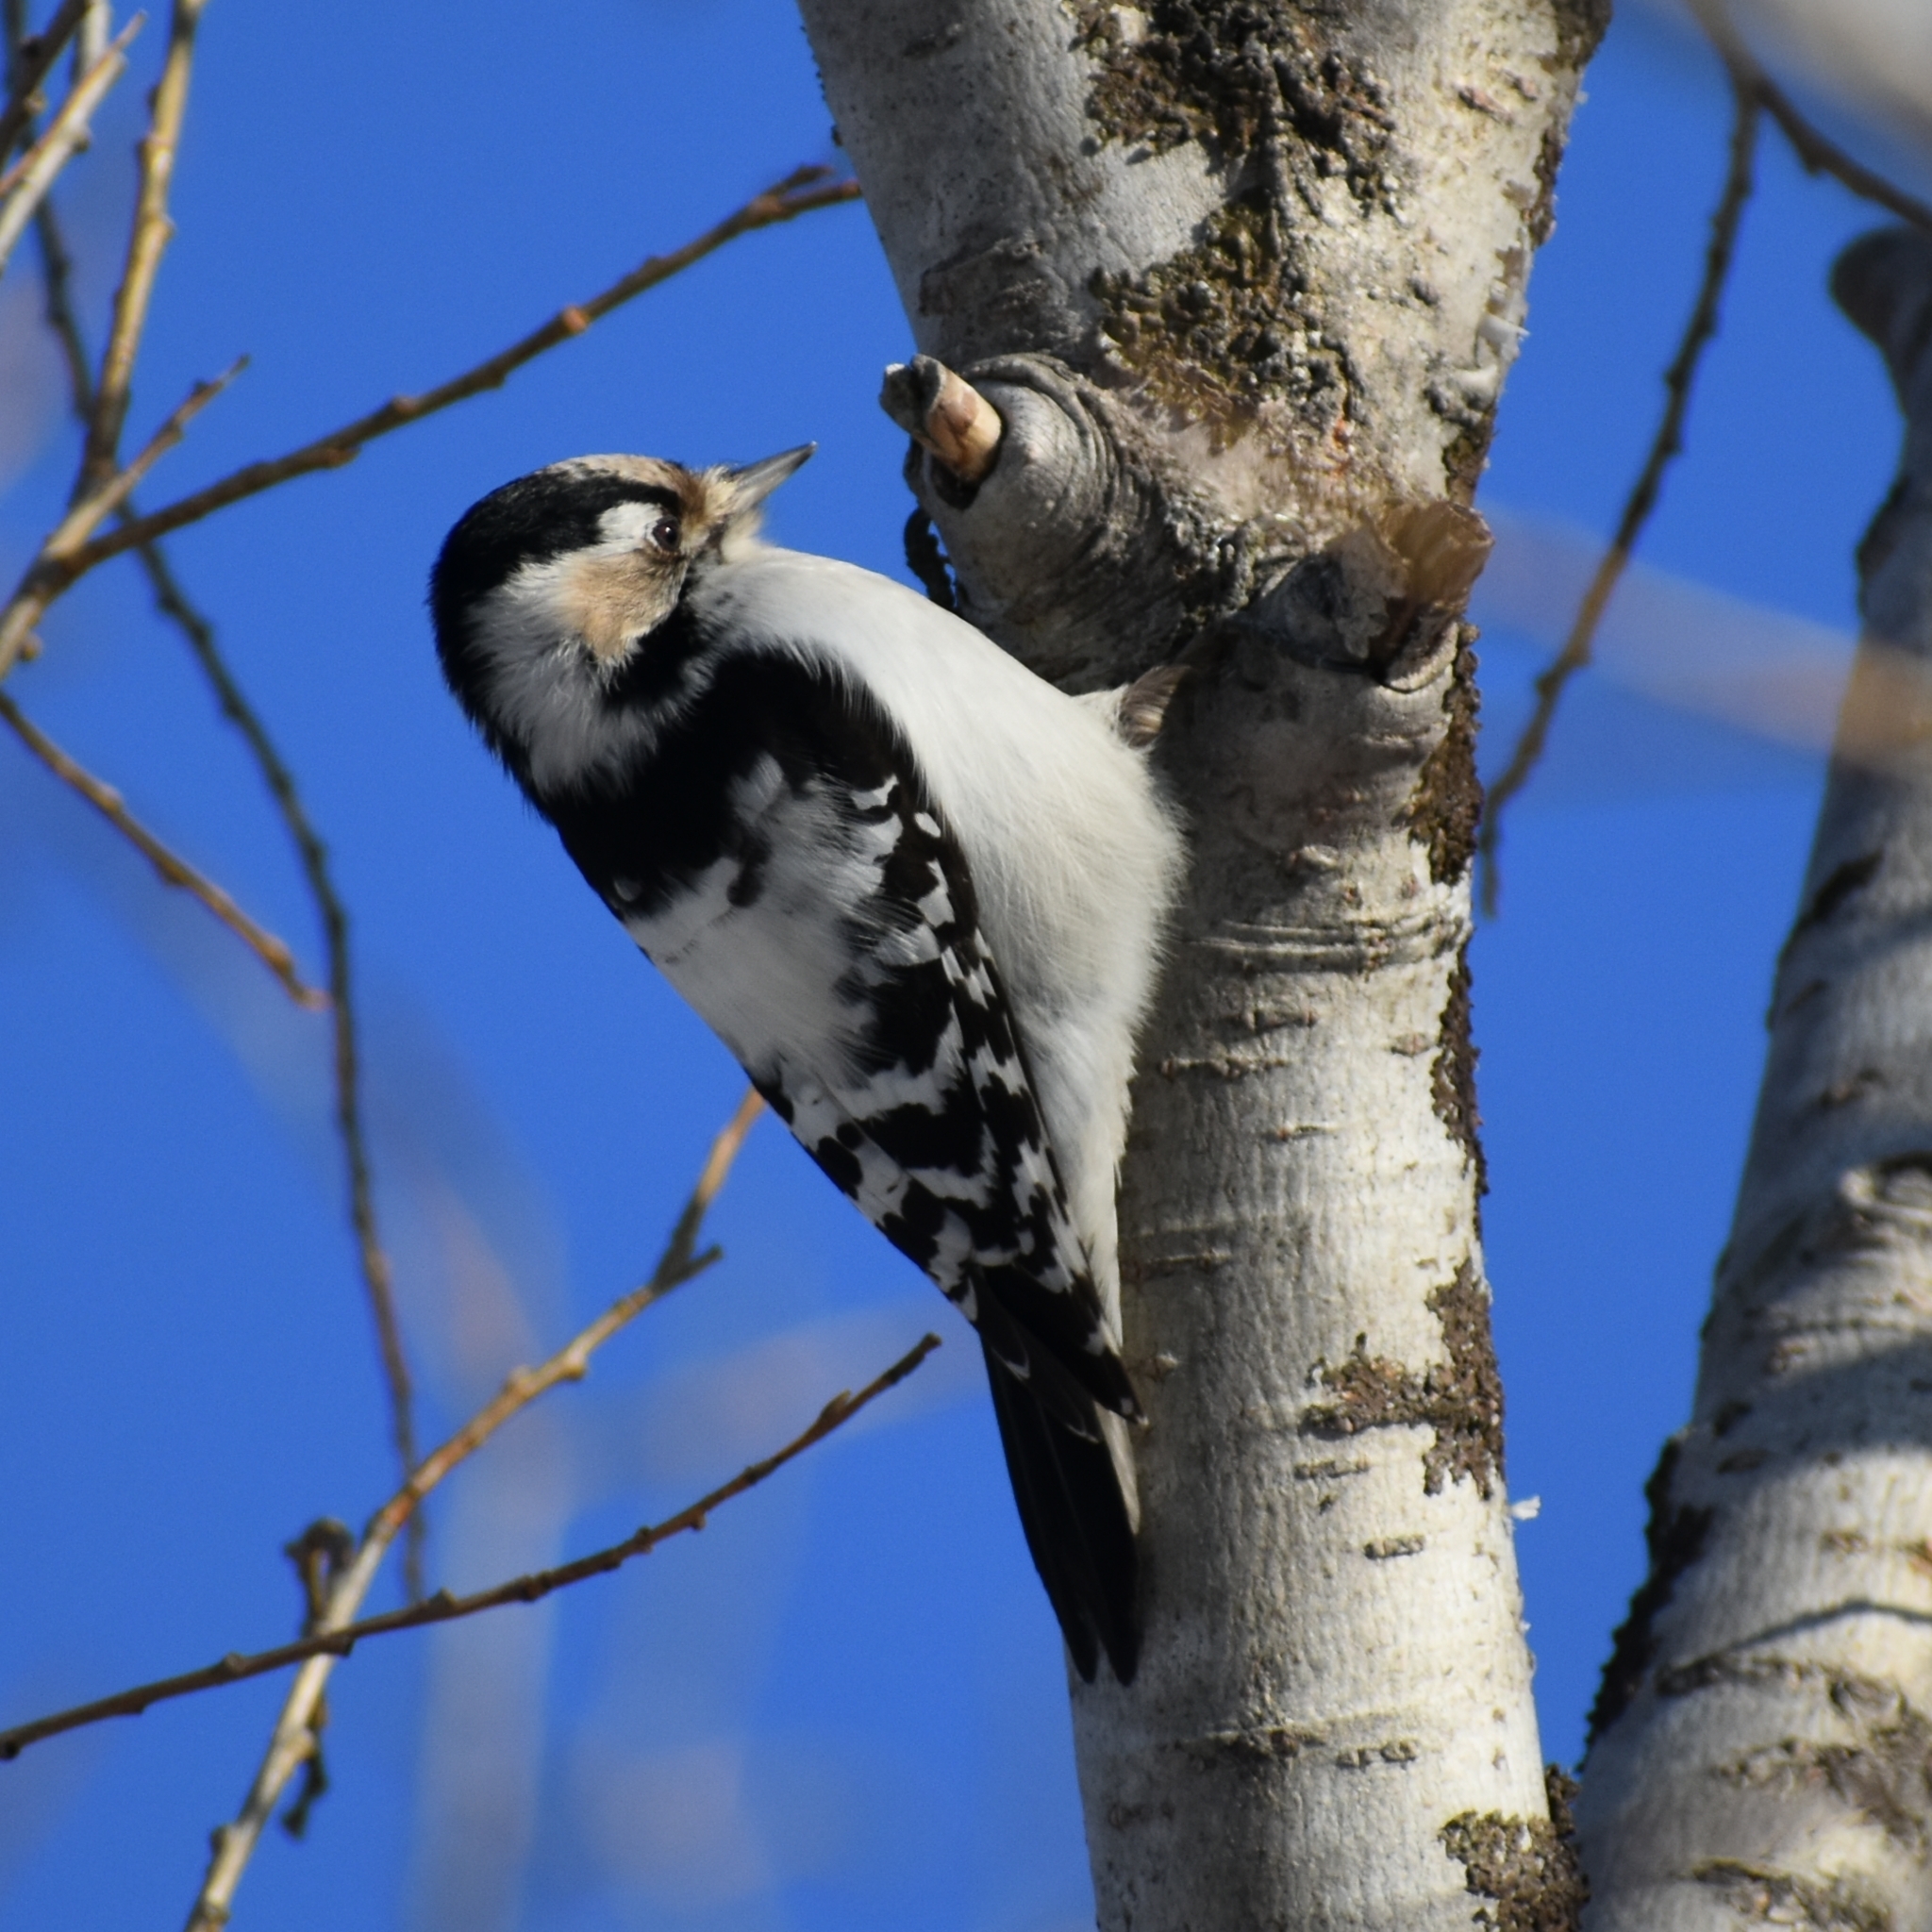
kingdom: Animalia
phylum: Chordata
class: Aves
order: Piciformes
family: Picidae
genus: Dryobates
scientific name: Dryobates minor
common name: Lesser spotted woodpecker
